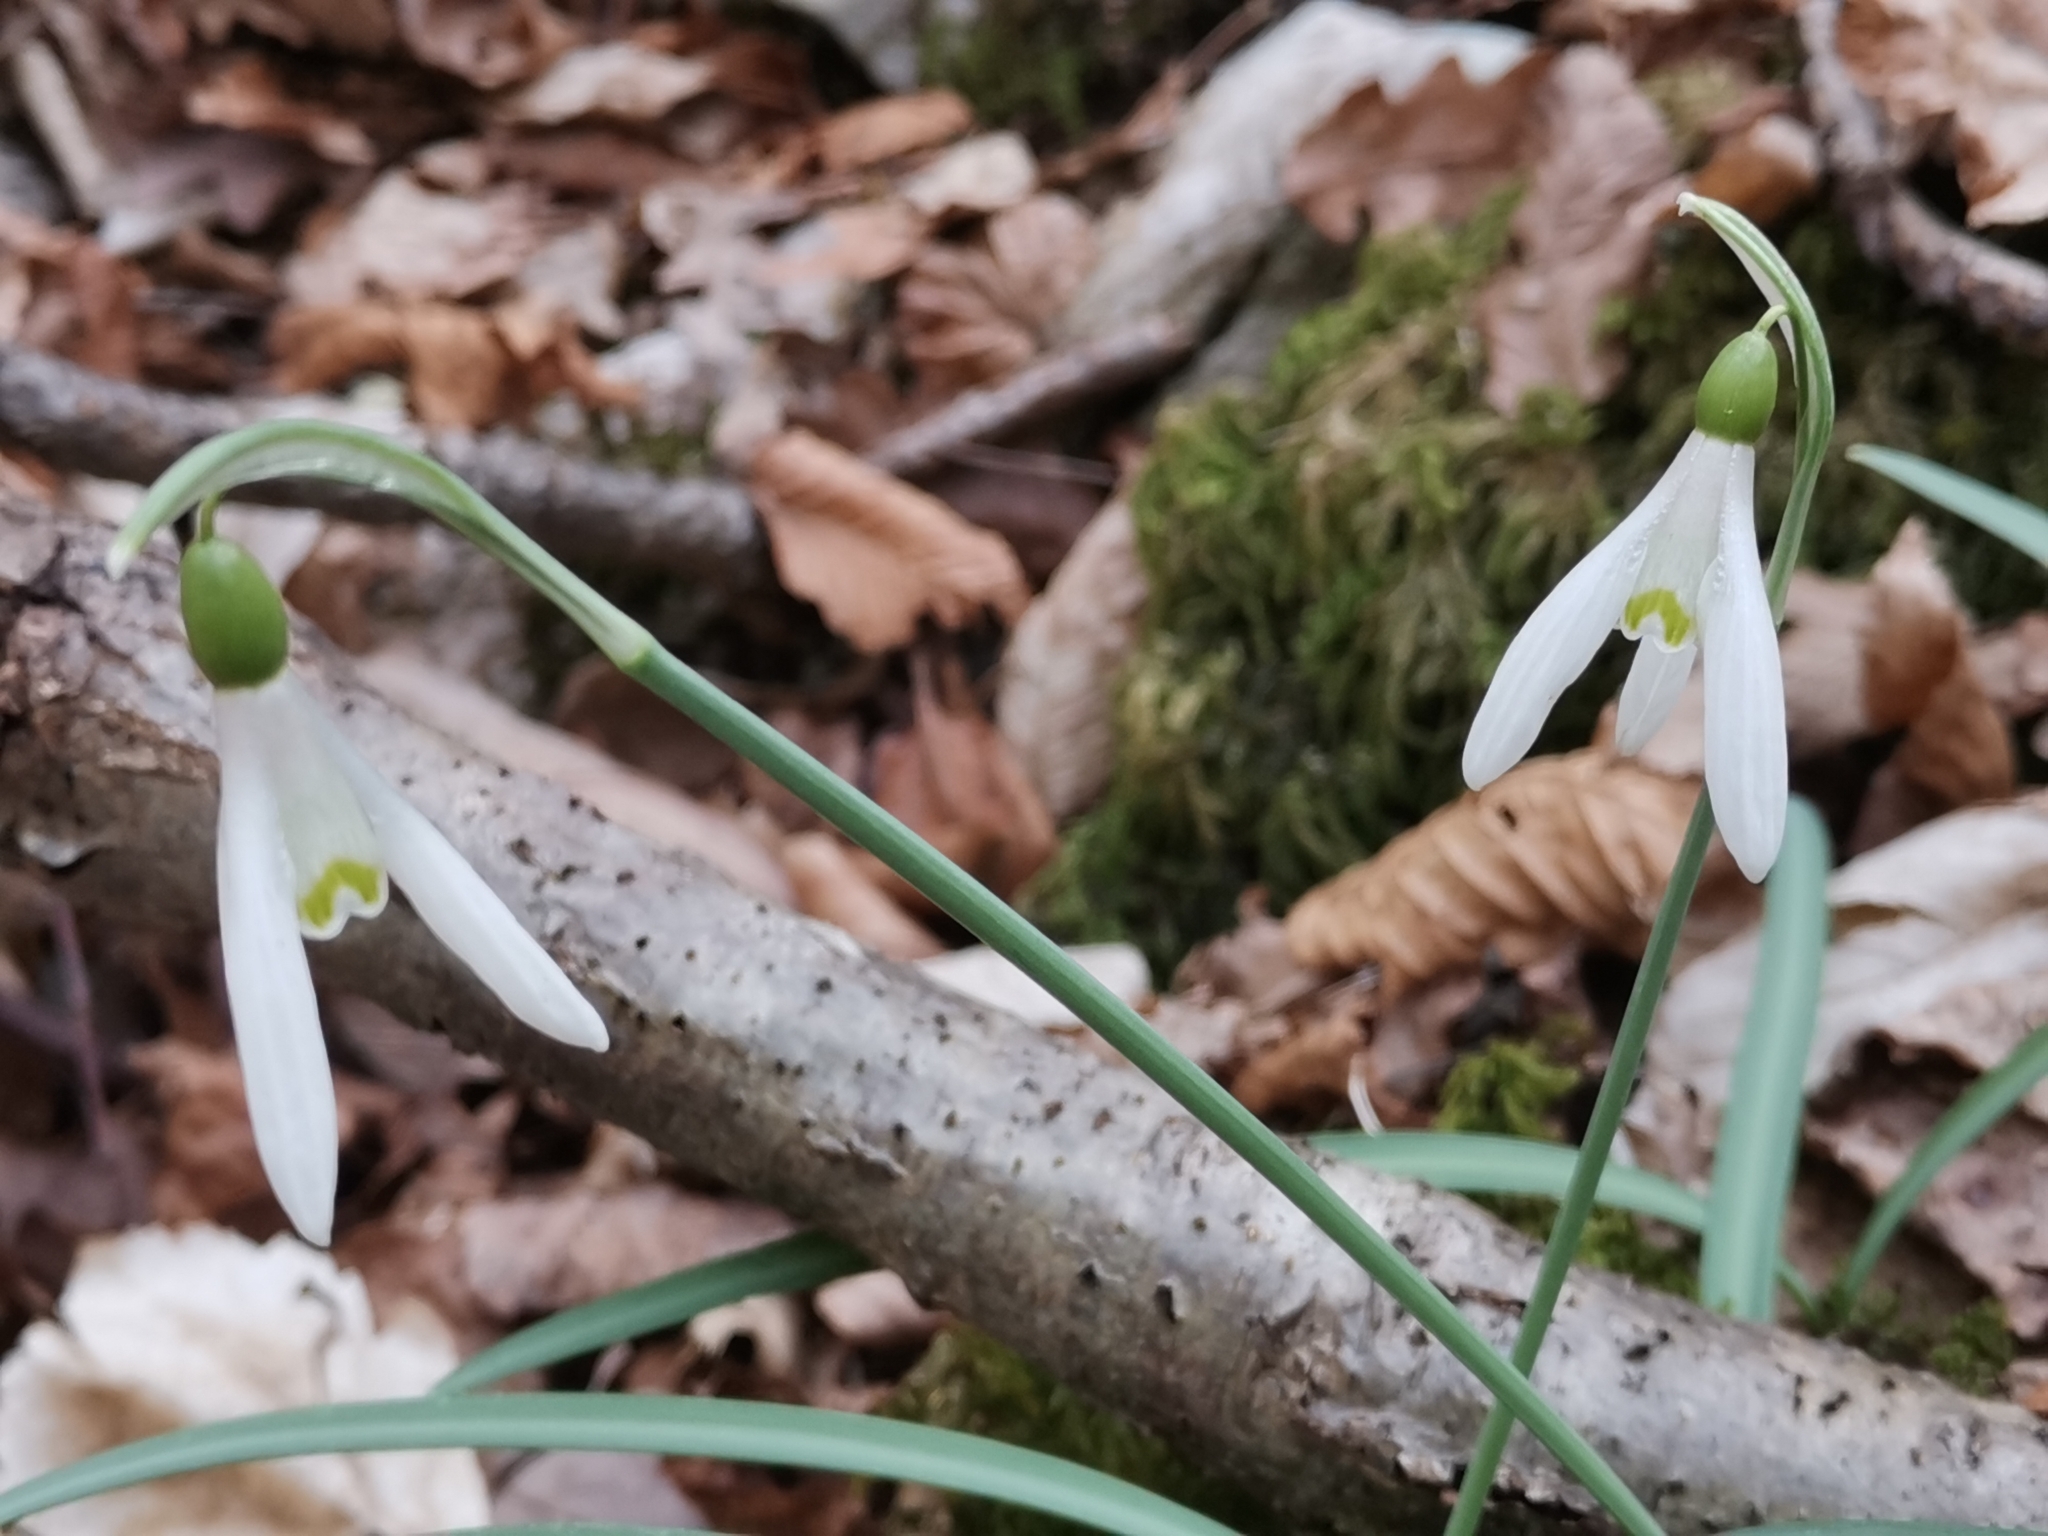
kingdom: Plantae
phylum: Tracheophyta
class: Liliopsida
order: Asparagales
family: Amaryllidaceae
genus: Galanthus
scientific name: Galanthus nivalis
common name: Snowdrop
